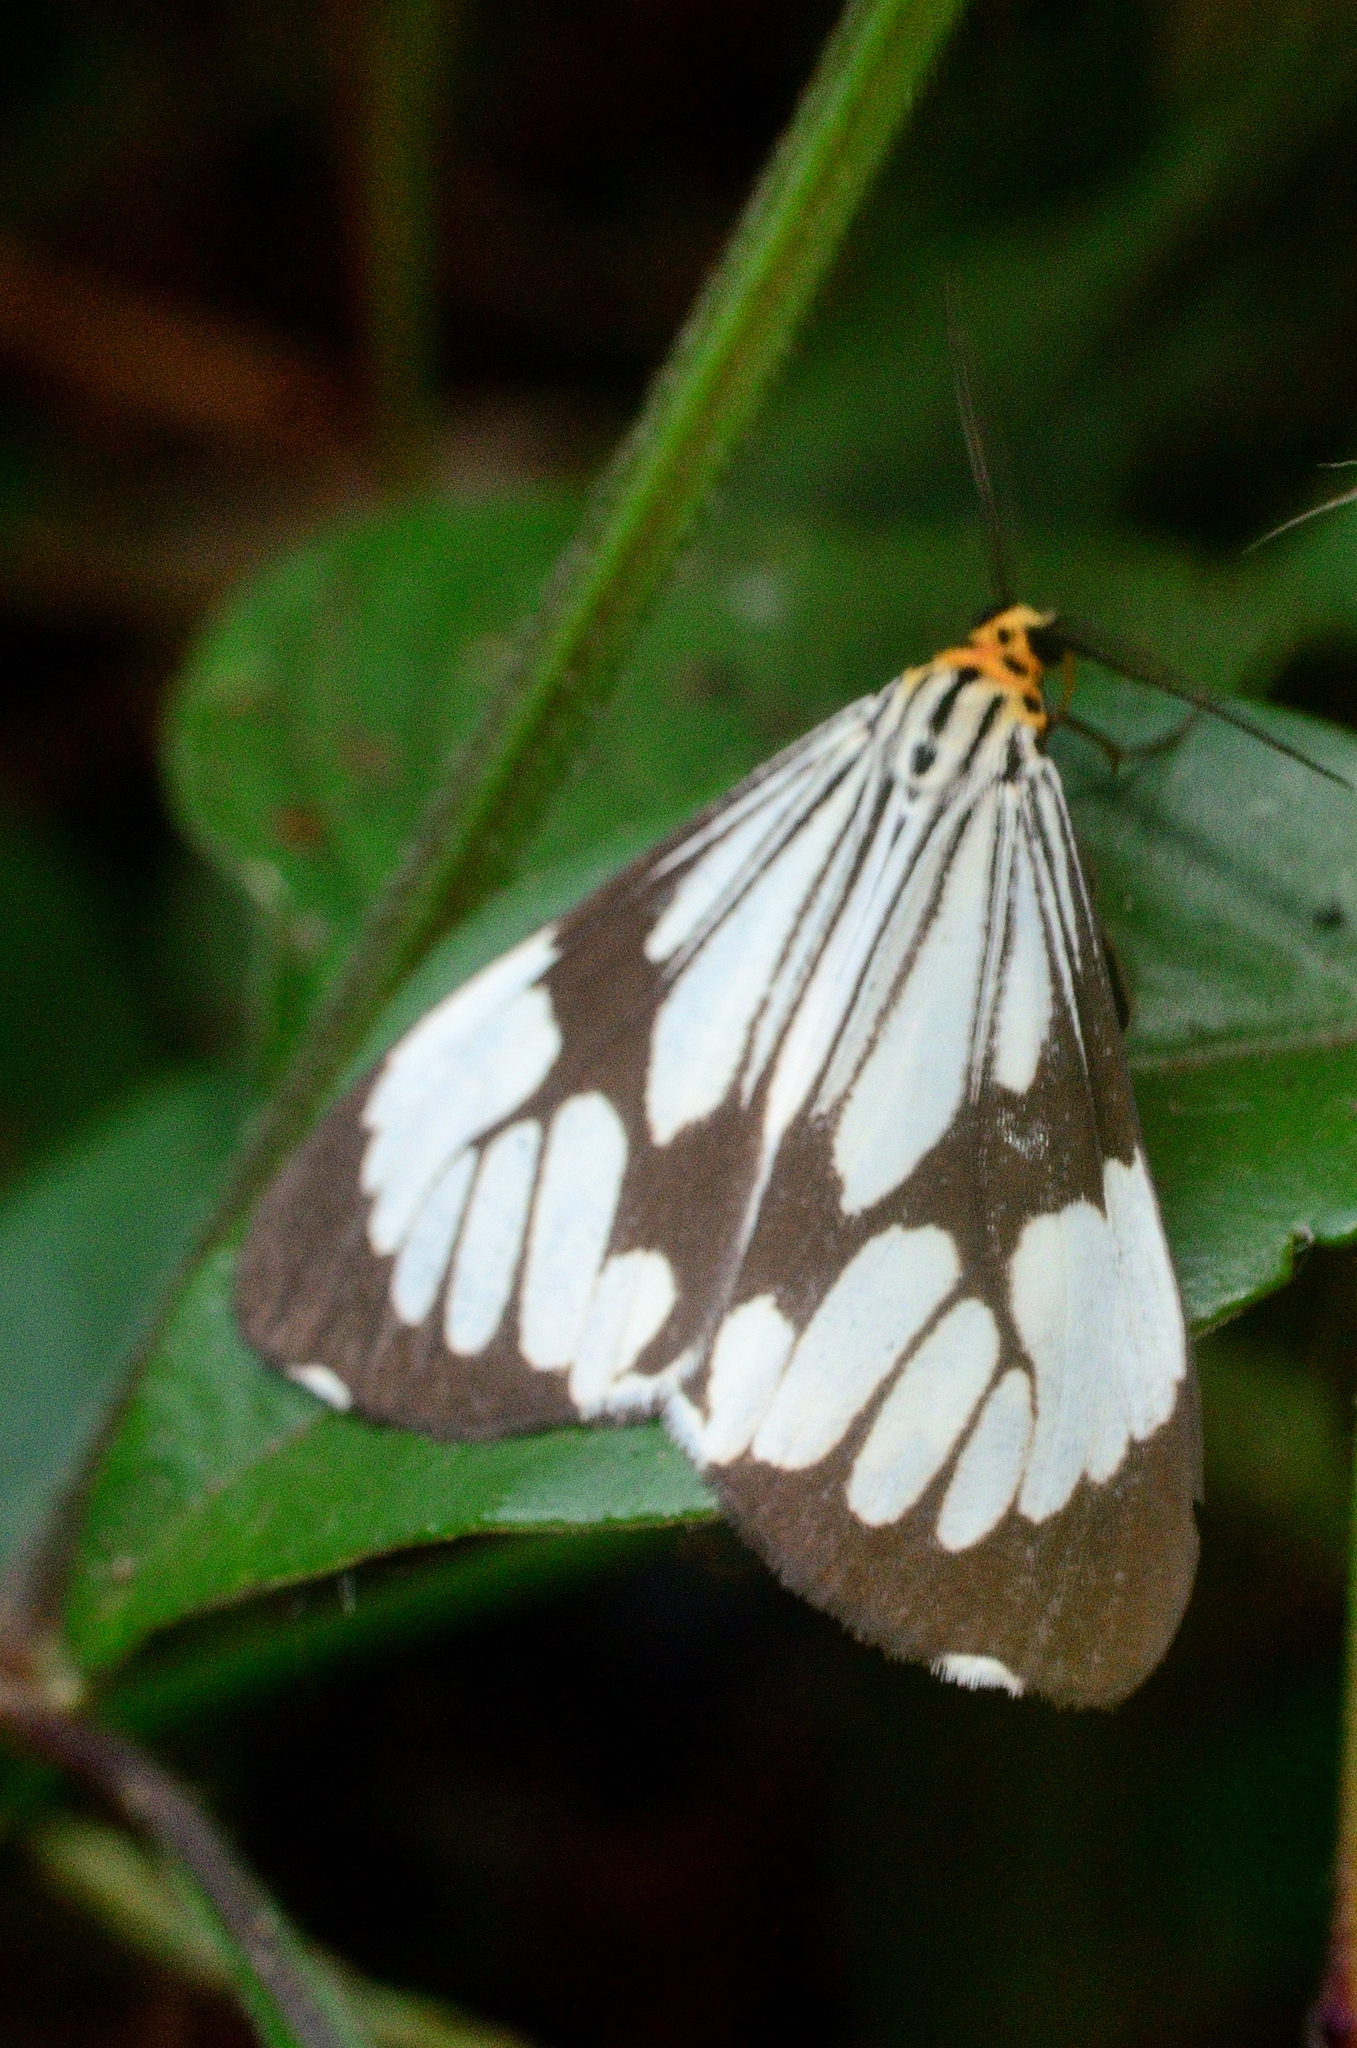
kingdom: Animalia
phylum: Arthropoda
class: Insecta
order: Lepidoptera
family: Erebidae
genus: Nyctemera
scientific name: Nyctemera coleta
